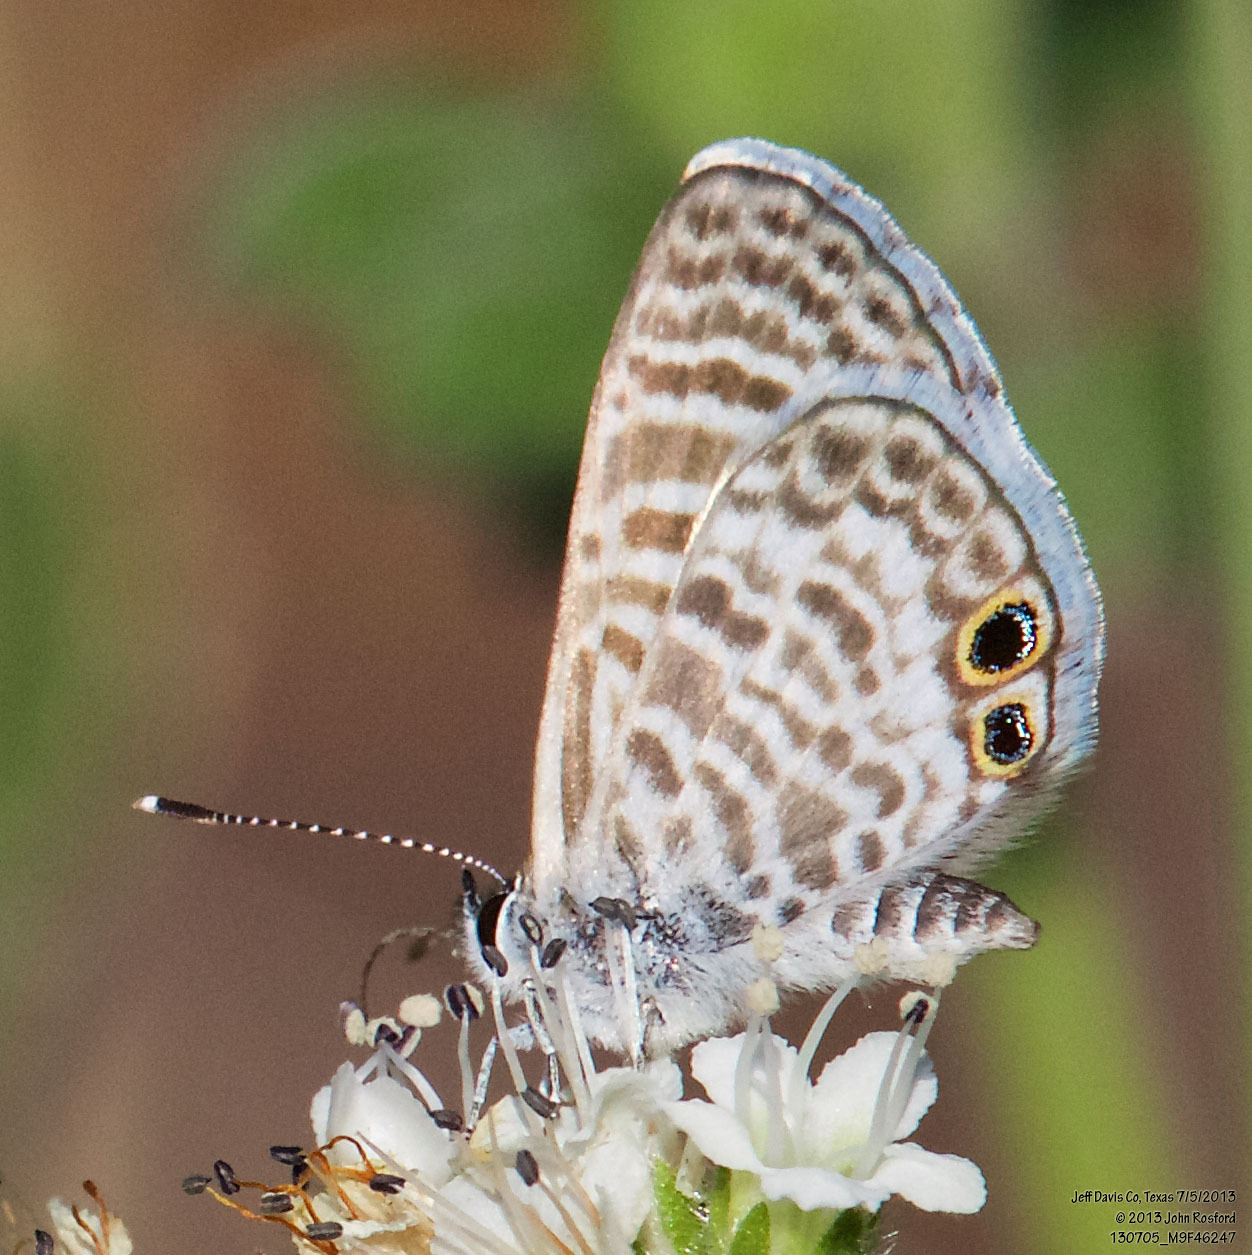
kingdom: Animalia
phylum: Arthropoda
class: Insecta
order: Lepidoptera
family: Lycaenidae
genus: Leptotes
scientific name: Leptotes marina
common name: Marine blue
